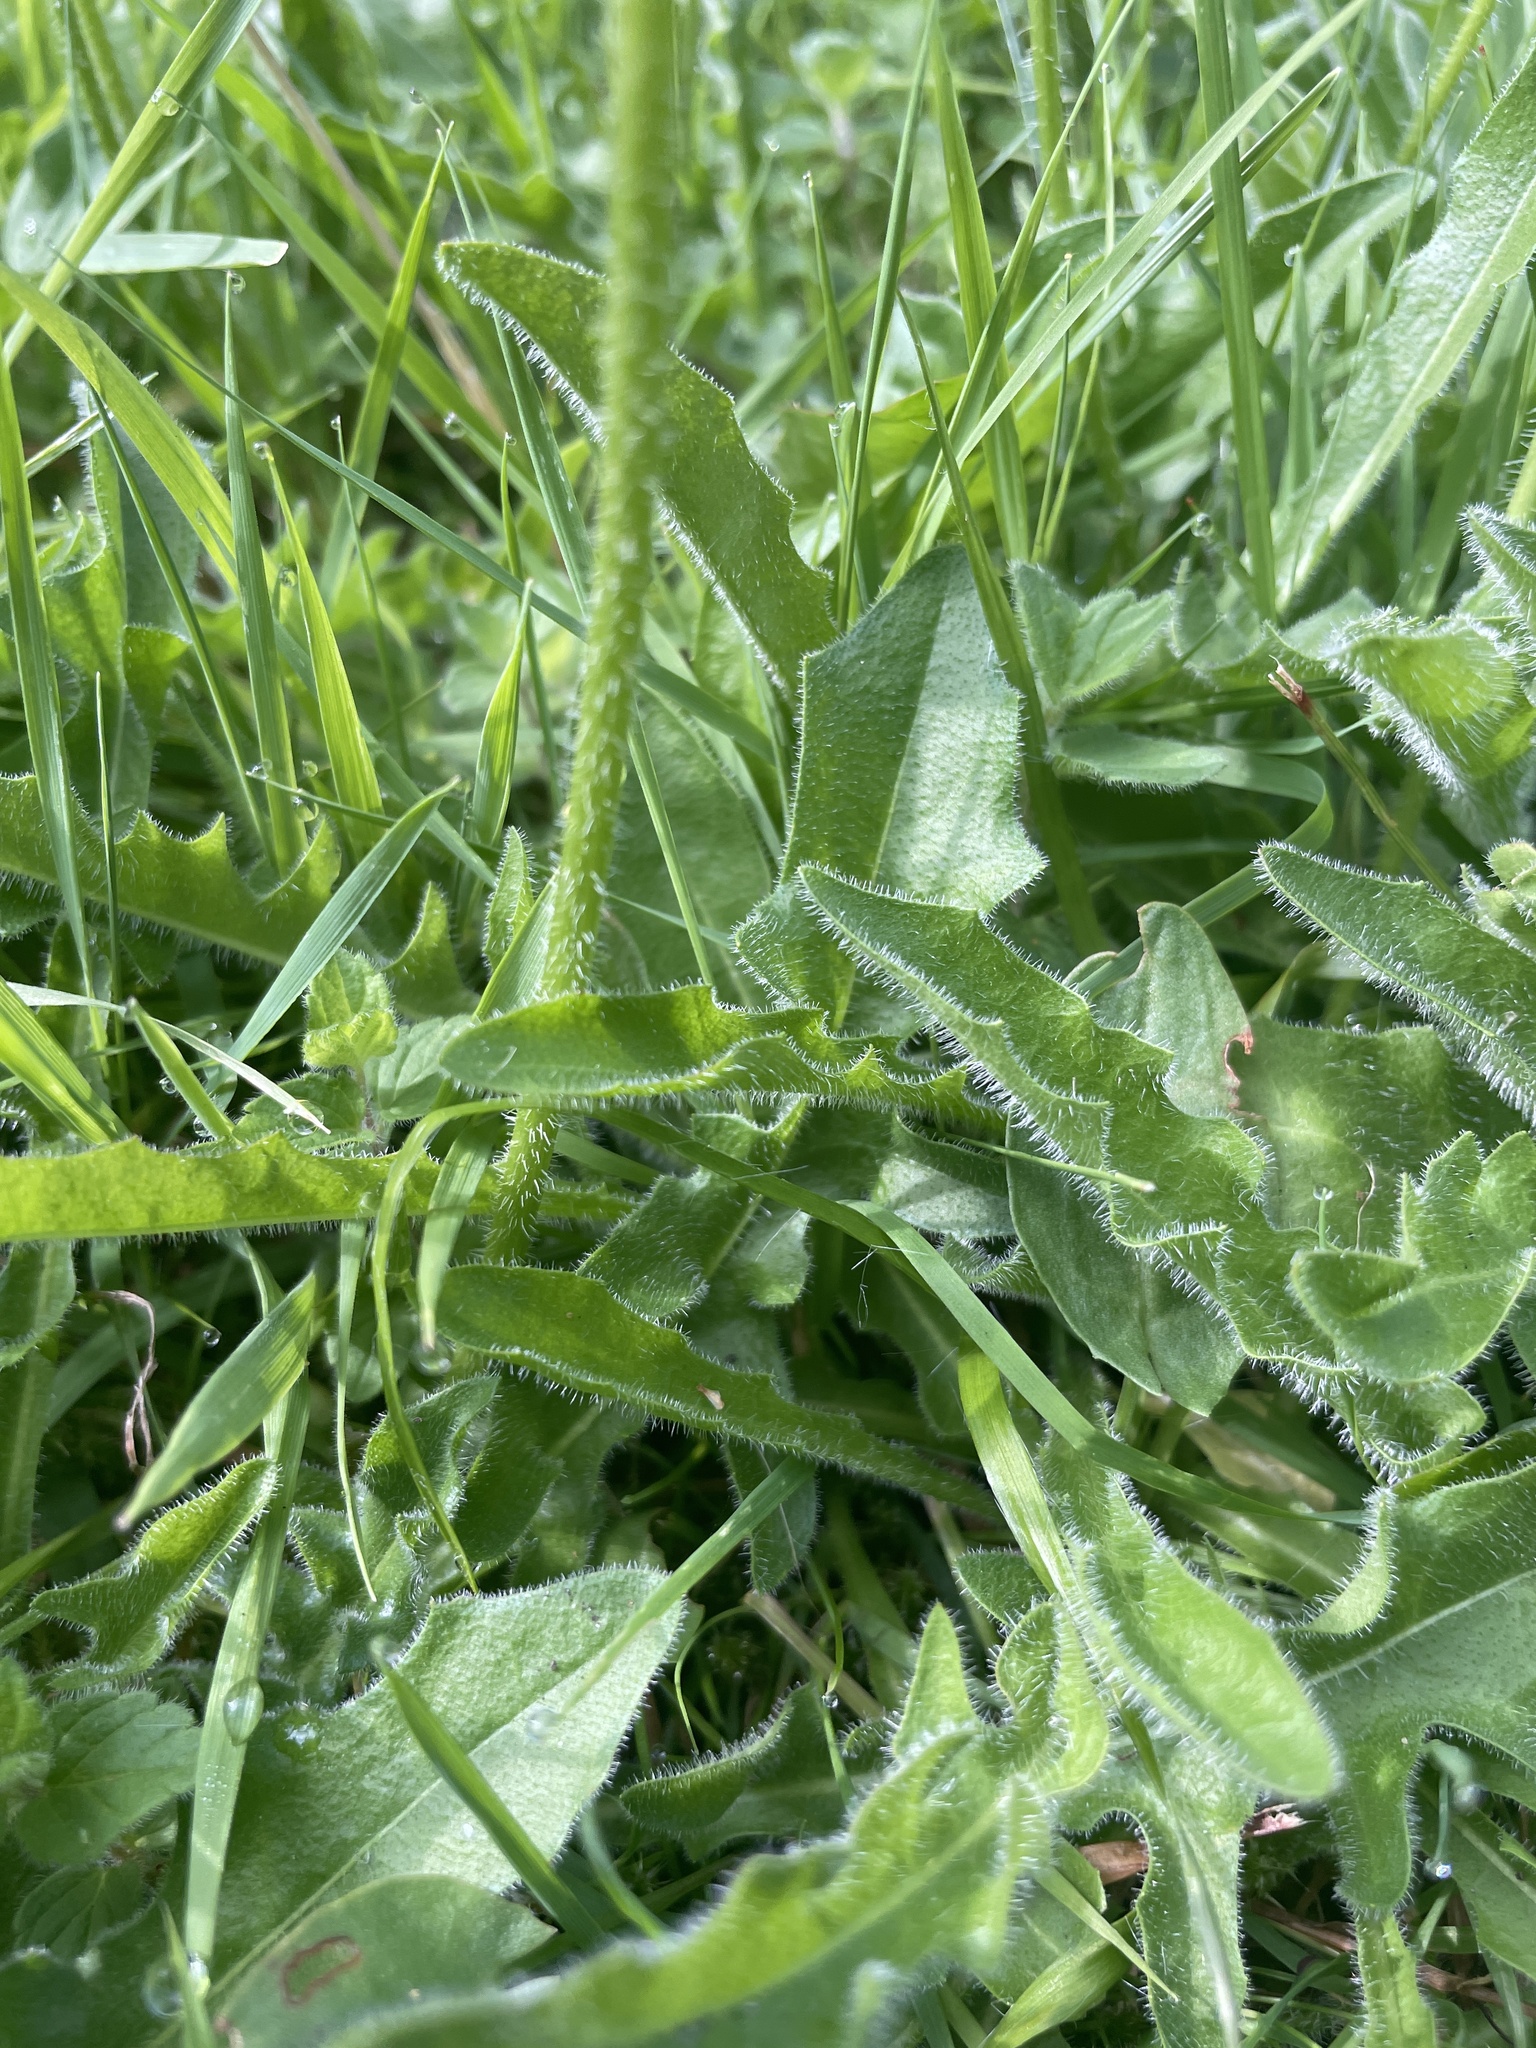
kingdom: Plantae
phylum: Tracheophyta
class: Magnoliopsida
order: Asterales
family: Asteraceae
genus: Leontodon
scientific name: Leontodon hispidus
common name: Rough hawkbit
